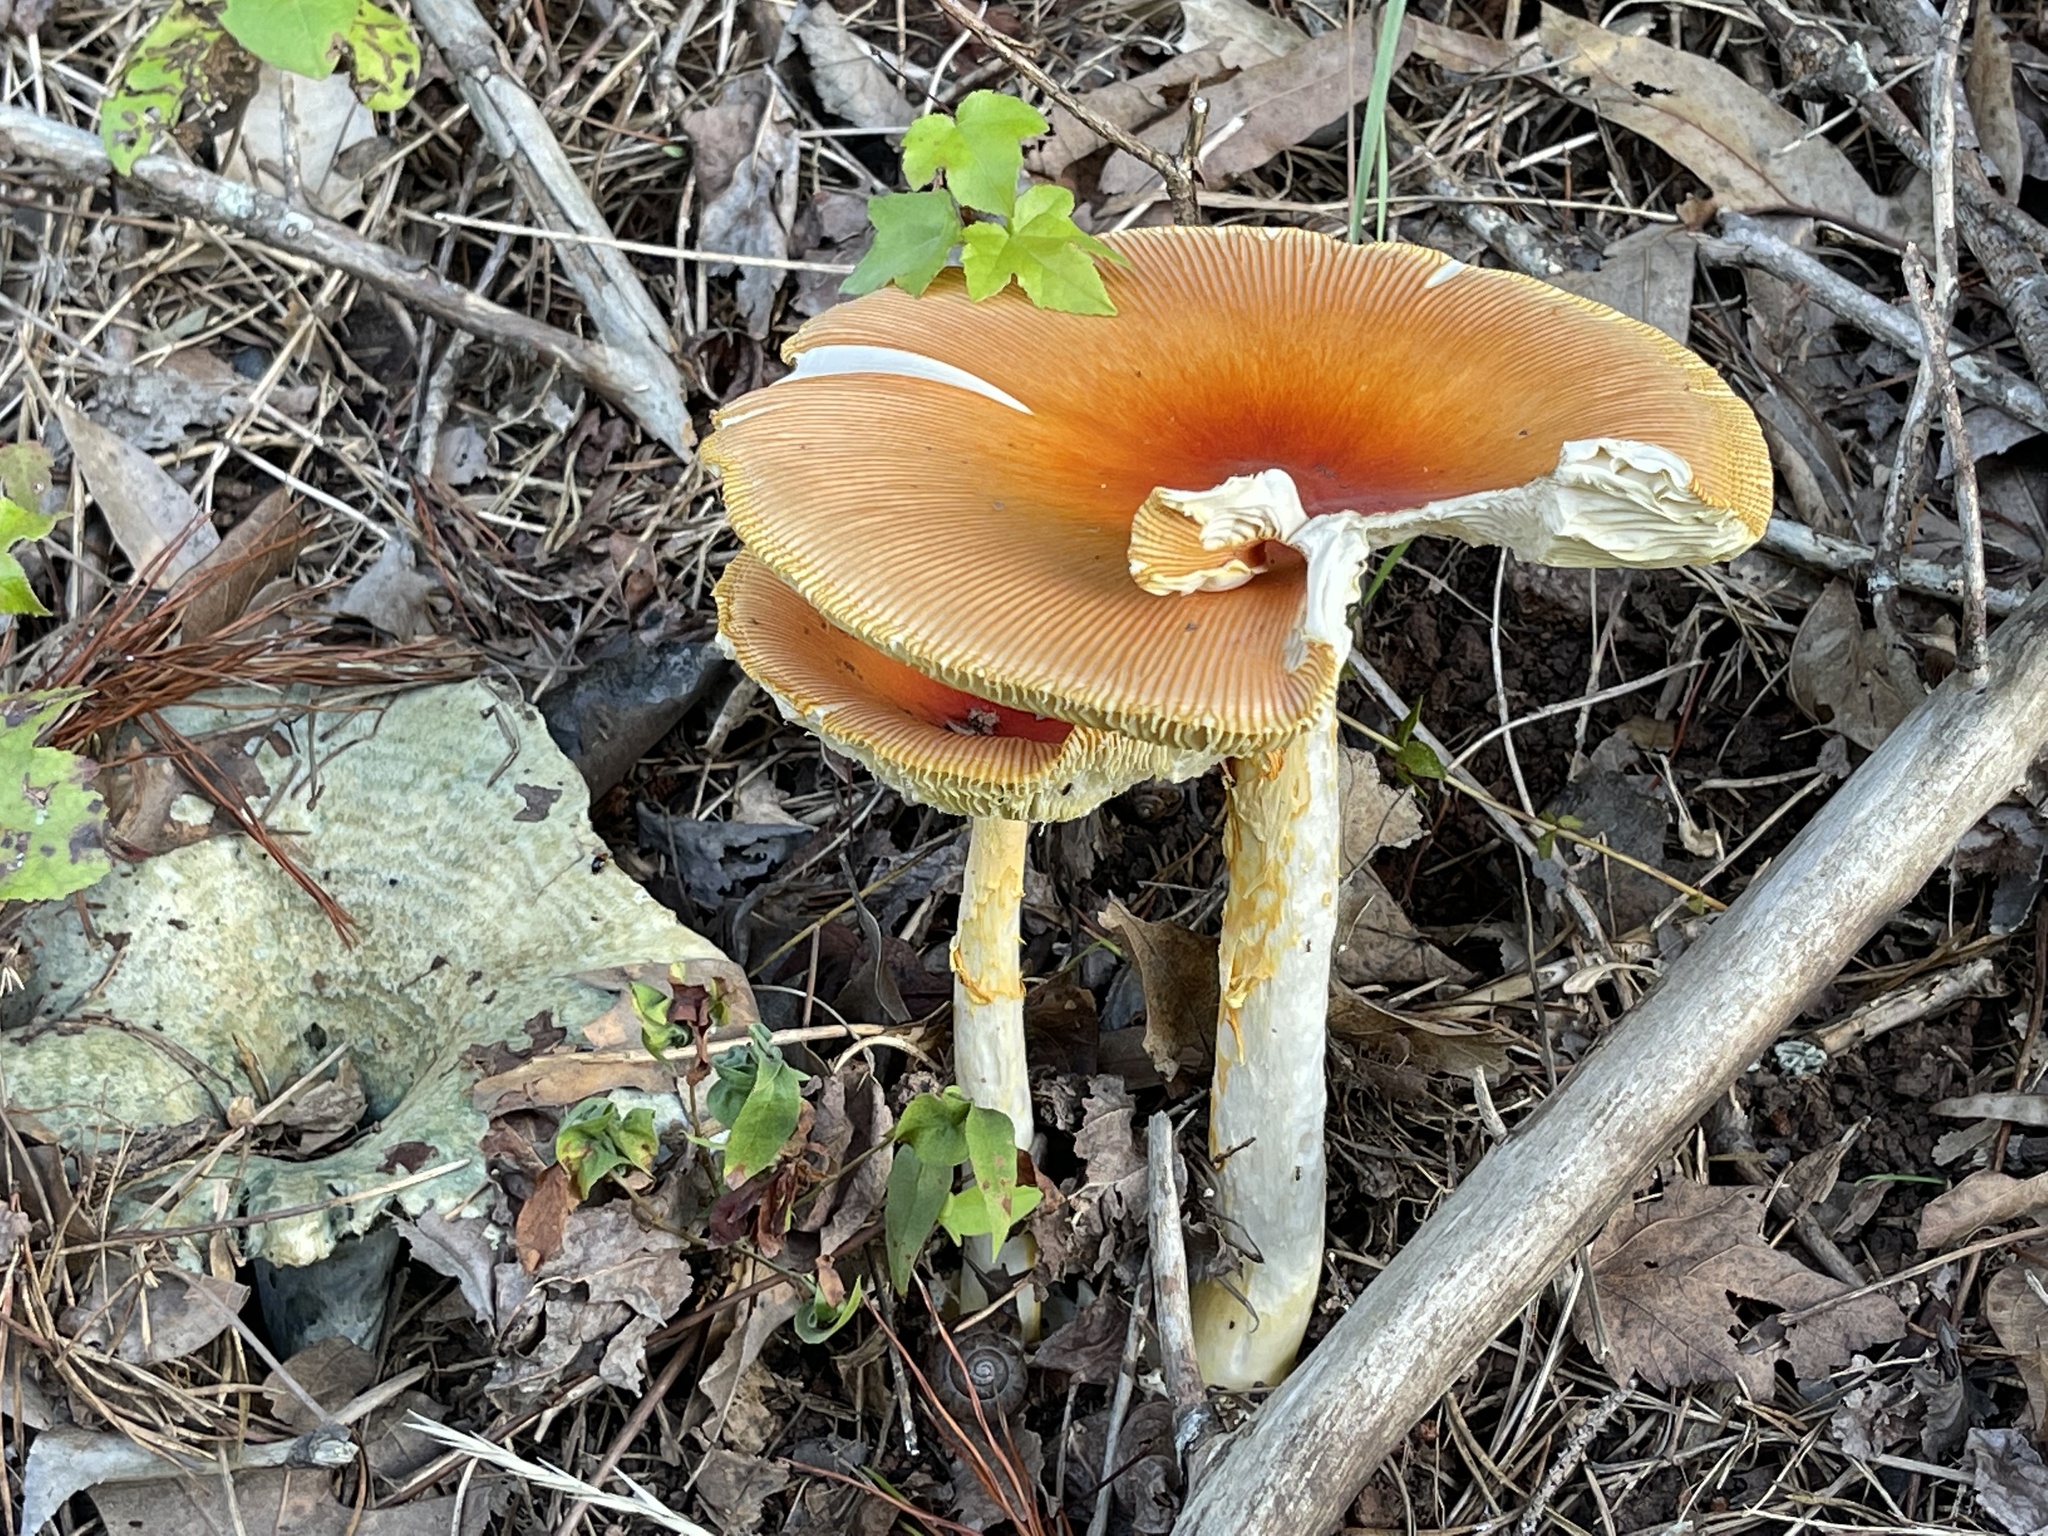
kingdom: Fungi
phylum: Basidiomycota
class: Agaricomycetes
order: Agaricales
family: Amanitaceae
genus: Amanita
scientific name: Amanita jacksonii
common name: Jackson's slender caesar
